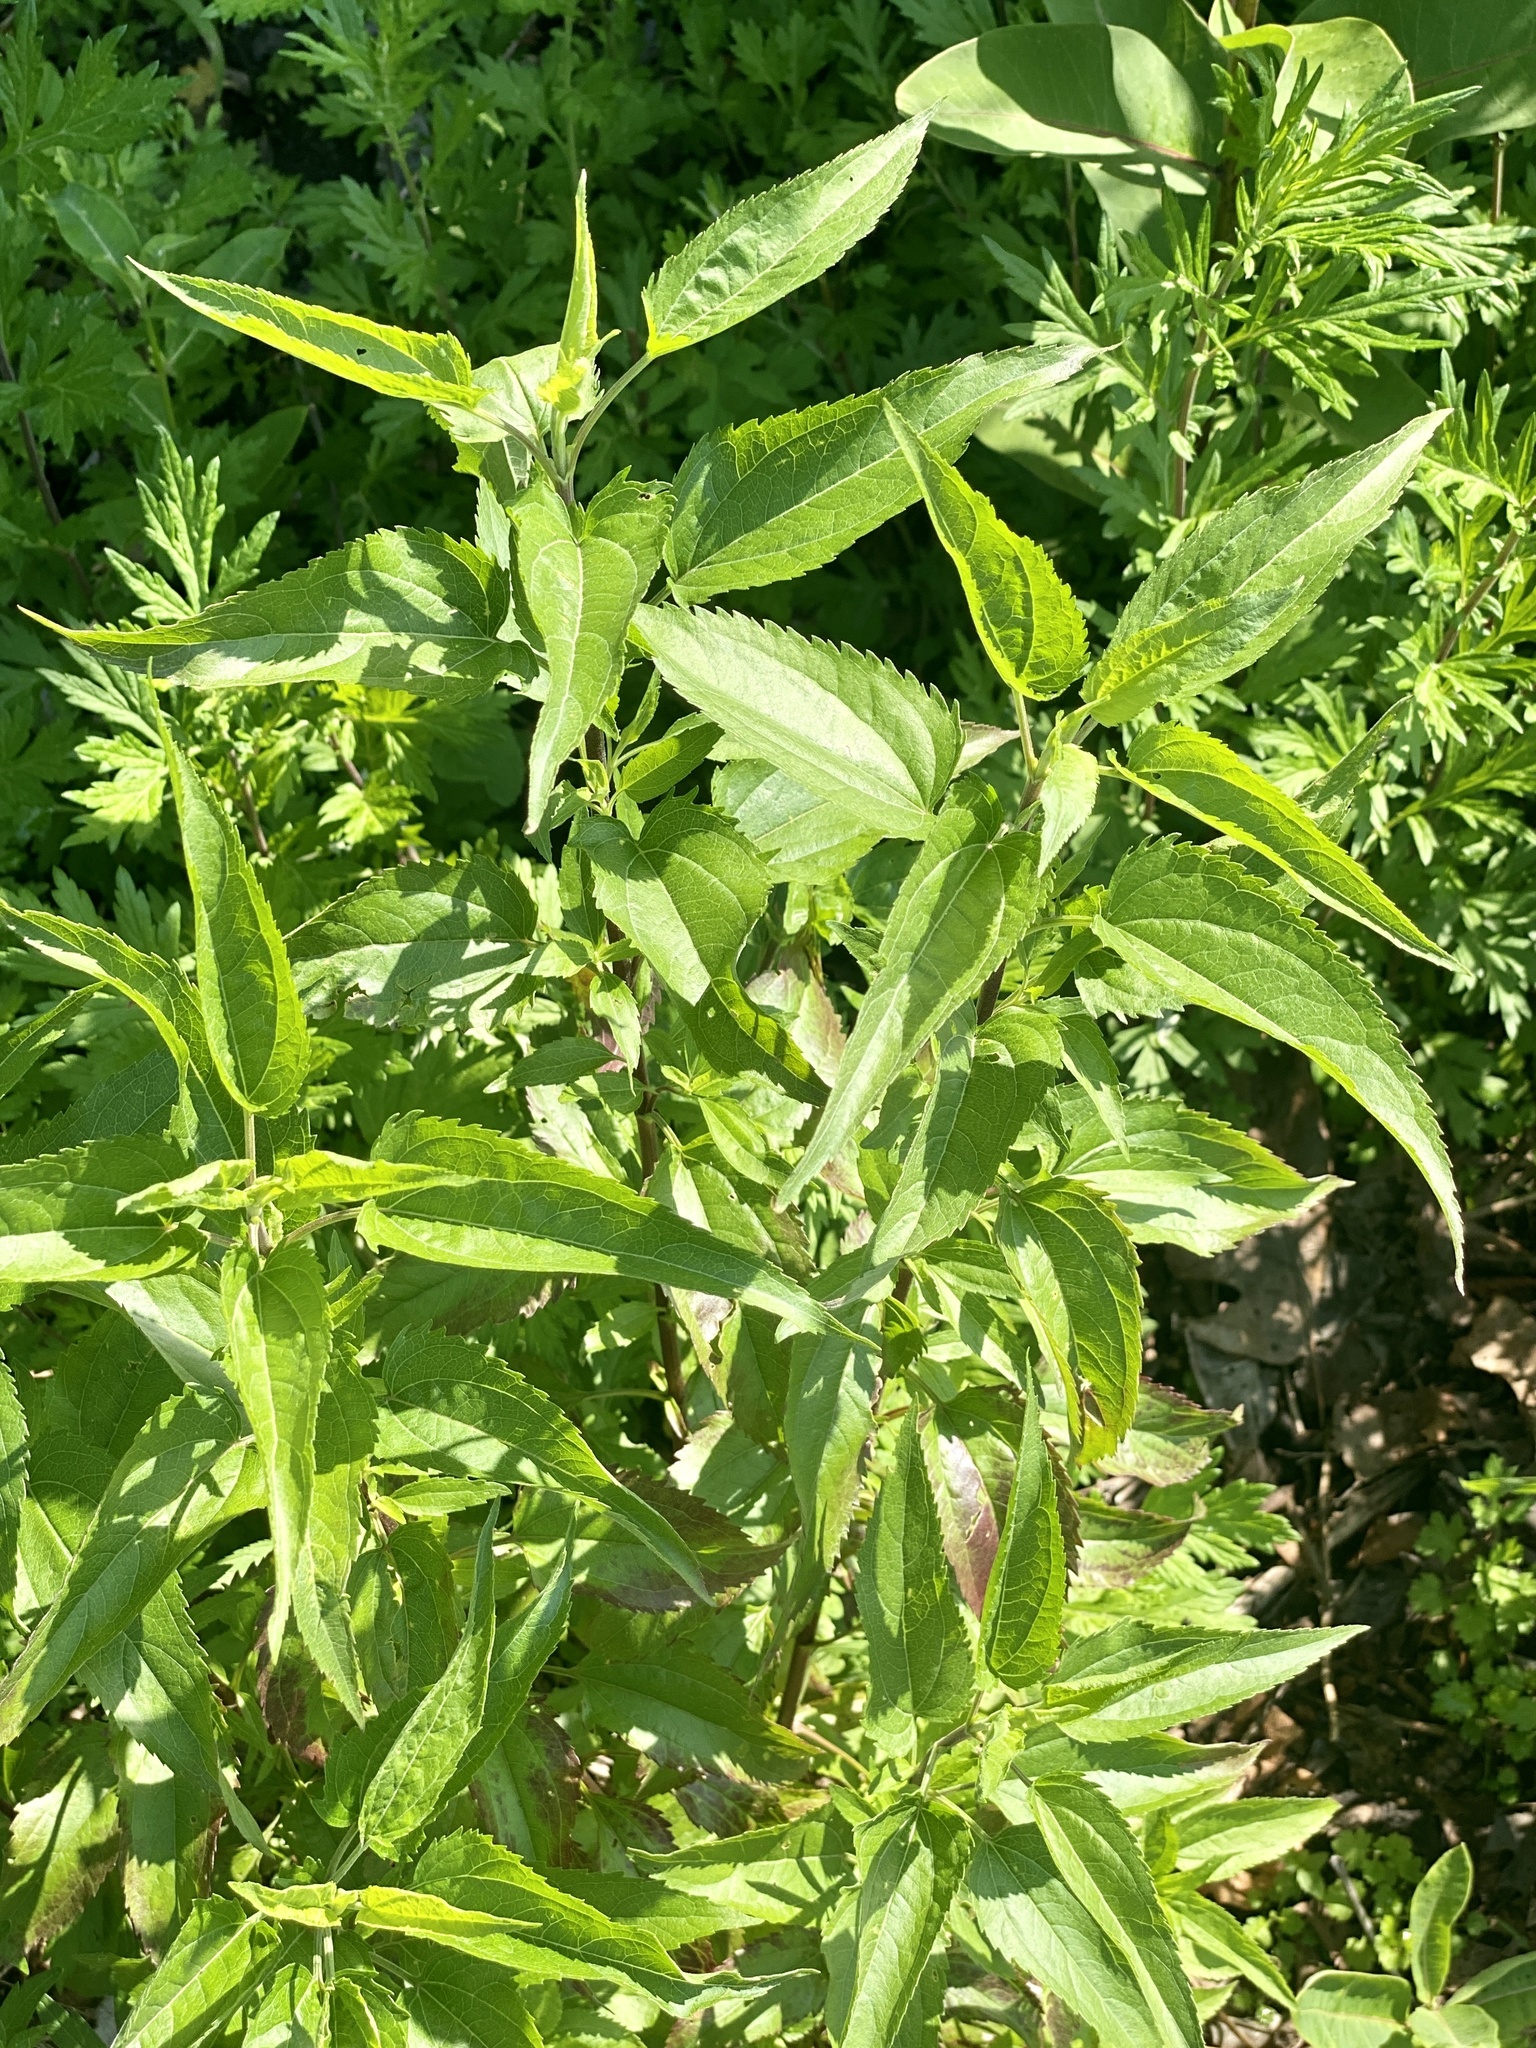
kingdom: Plantae
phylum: Tracheophyta
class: Magnoliopsida
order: Asterales
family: Asteraceae
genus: Eupatorium
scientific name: Eupatorium serotinum
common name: Late boneset
